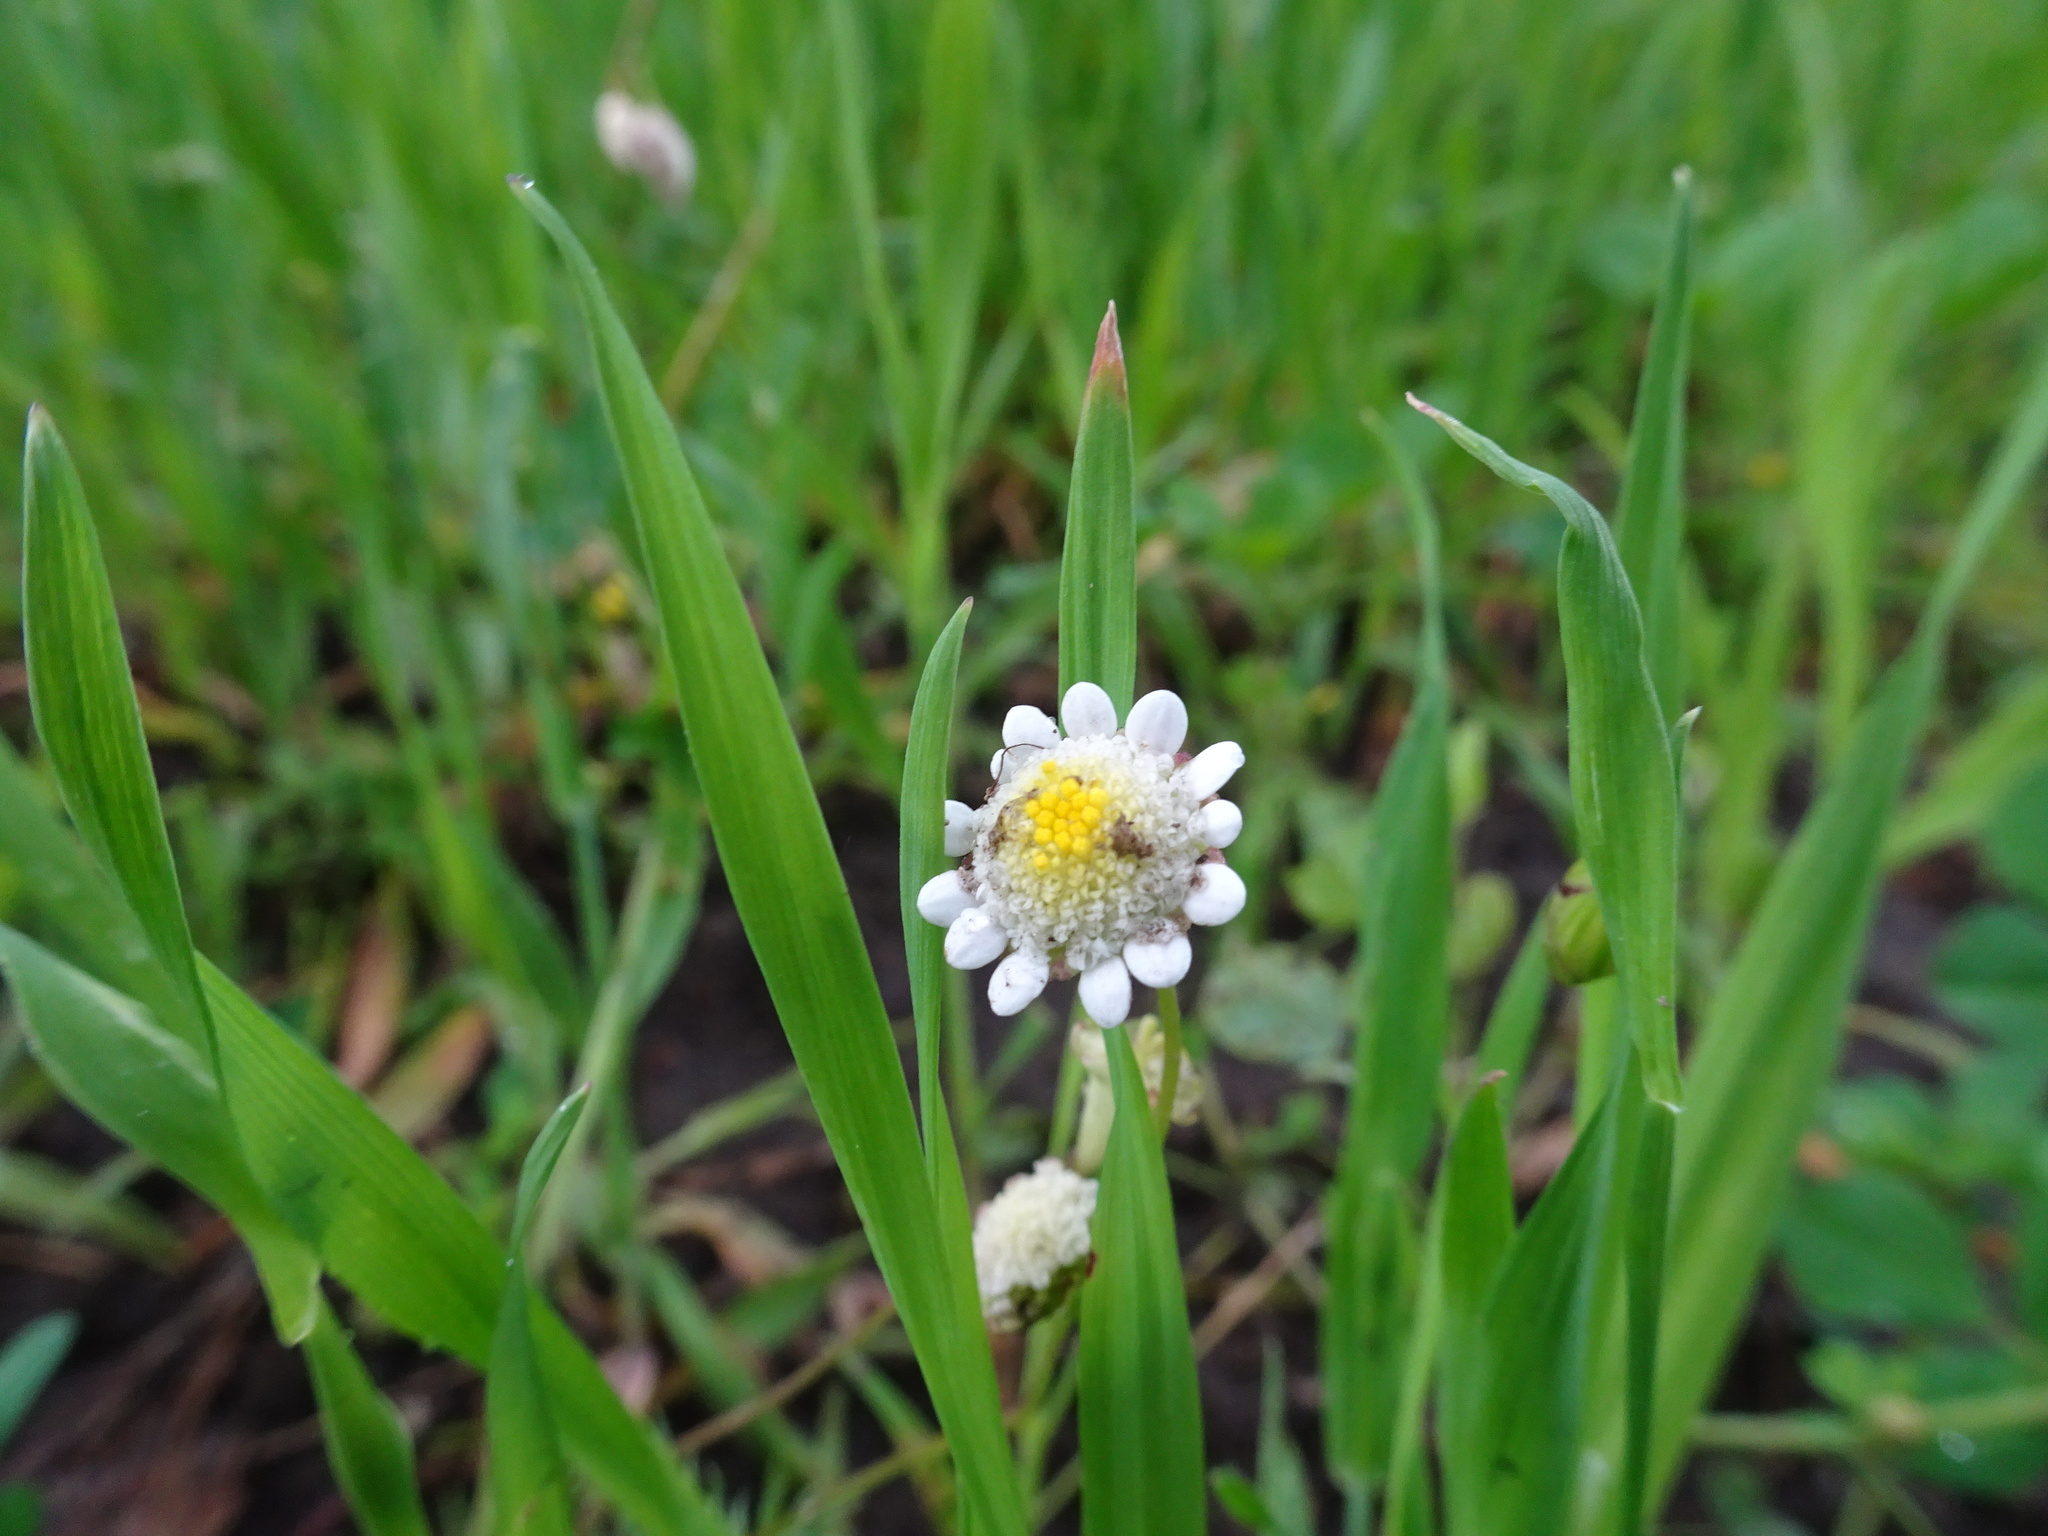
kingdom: Plantae
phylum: Tracheophyta
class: Magnoliopsida
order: Asterales
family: Asteraceae
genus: Cotula
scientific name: Cotula turbinata
